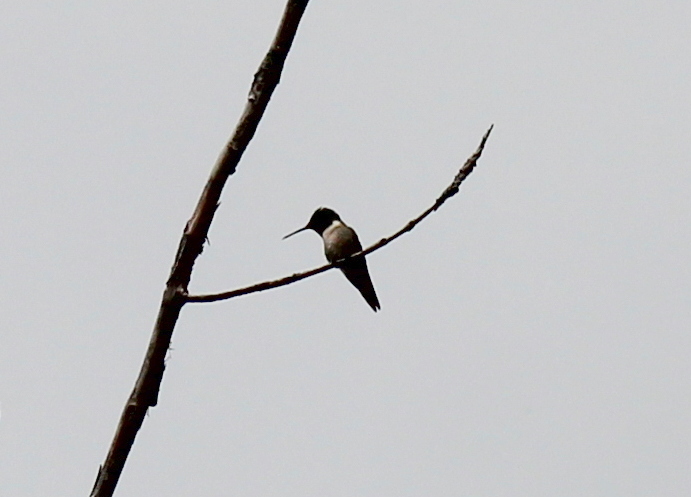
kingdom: Animalia
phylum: Chordata
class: Aves
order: Apodiformes
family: Trochilidae
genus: Archilochus
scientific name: Archilochus colubris
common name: Ruby-throated hummingbird
